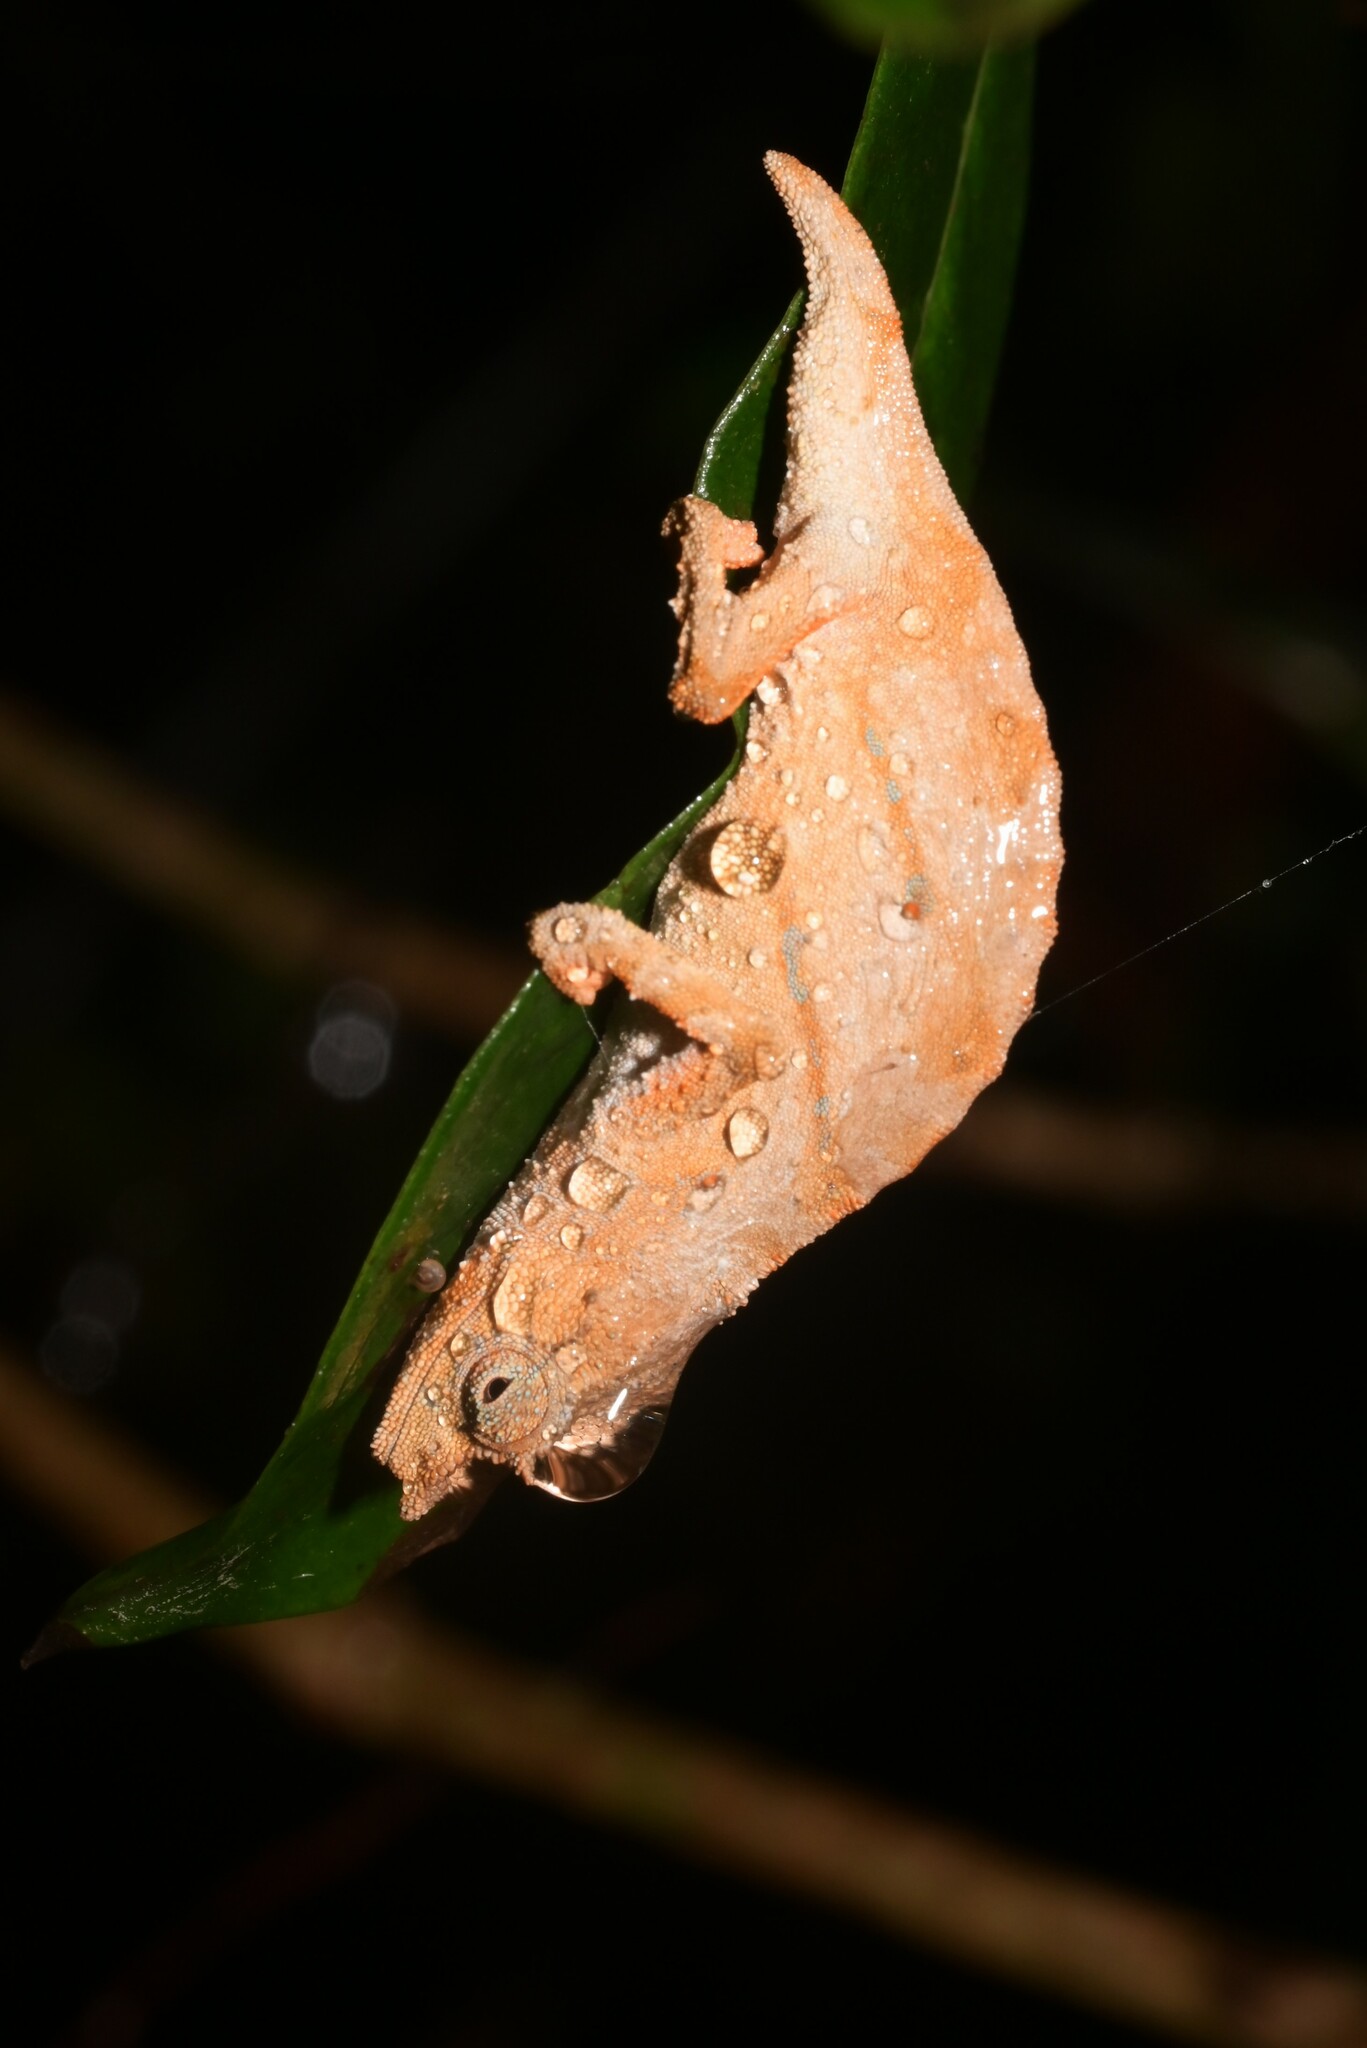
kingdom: Animalia
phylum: Chordata
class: Squamata
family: Chamaeleonidae
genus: Rhampholeon
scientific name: Rhampholeon nchisiensis
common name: South african stumptail chameleon
